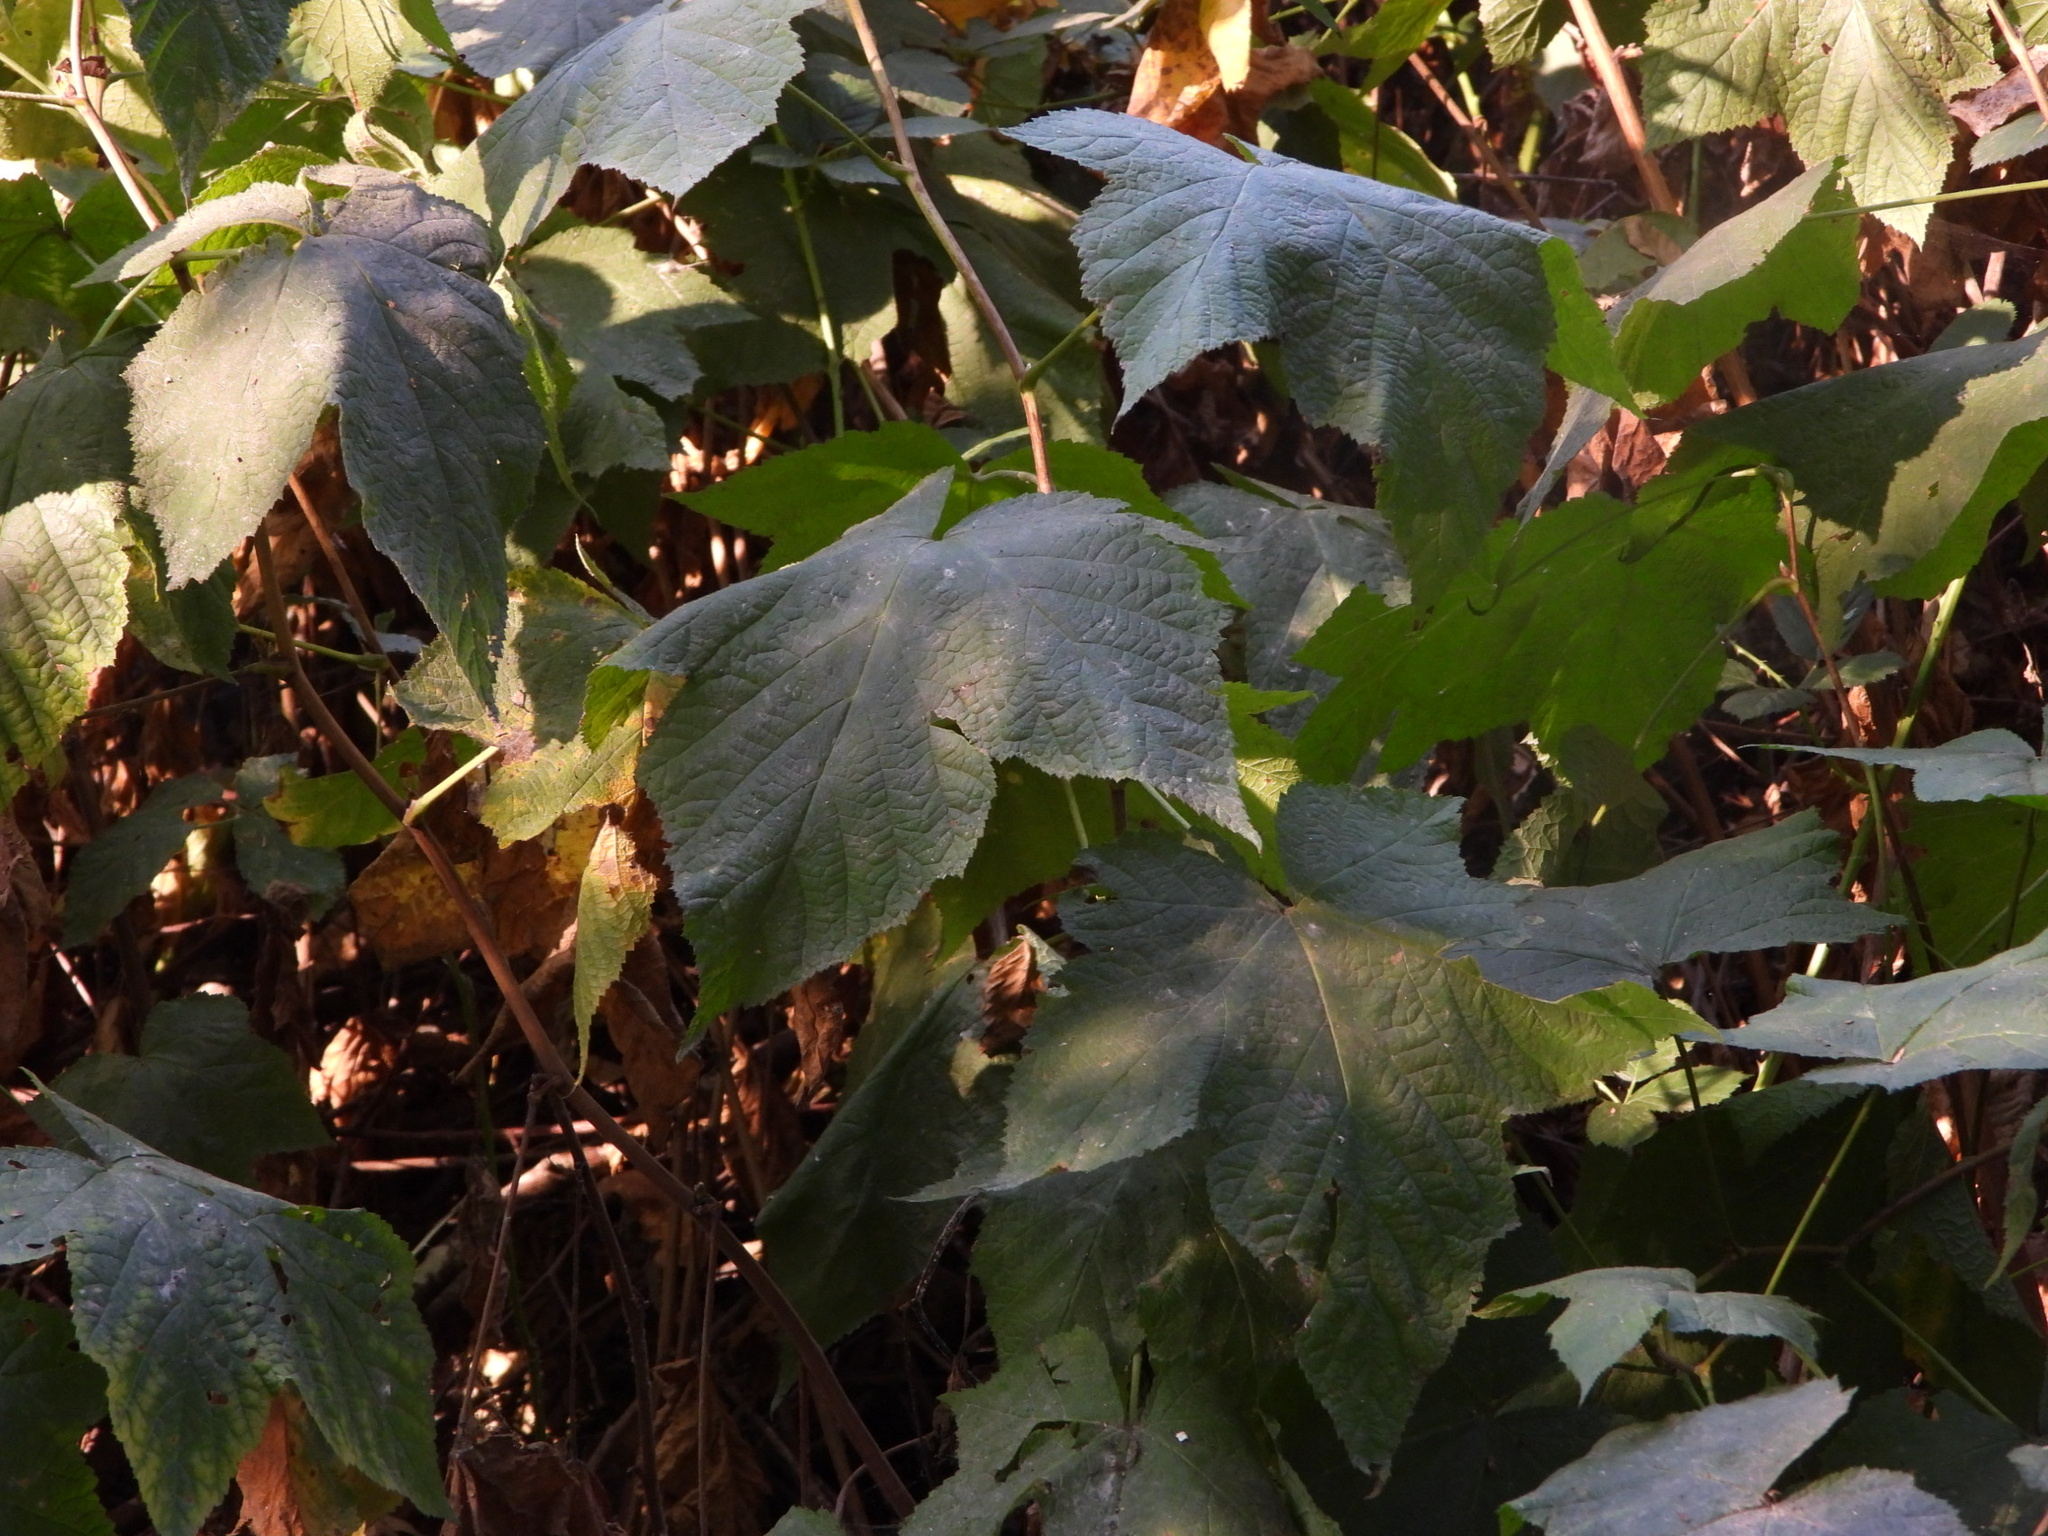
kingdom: Plantae
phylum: Tracheophyta
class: Magnoliopsida
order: Rosales
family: Rosaceae
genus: Rubus
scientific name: Rubus parviflorus
